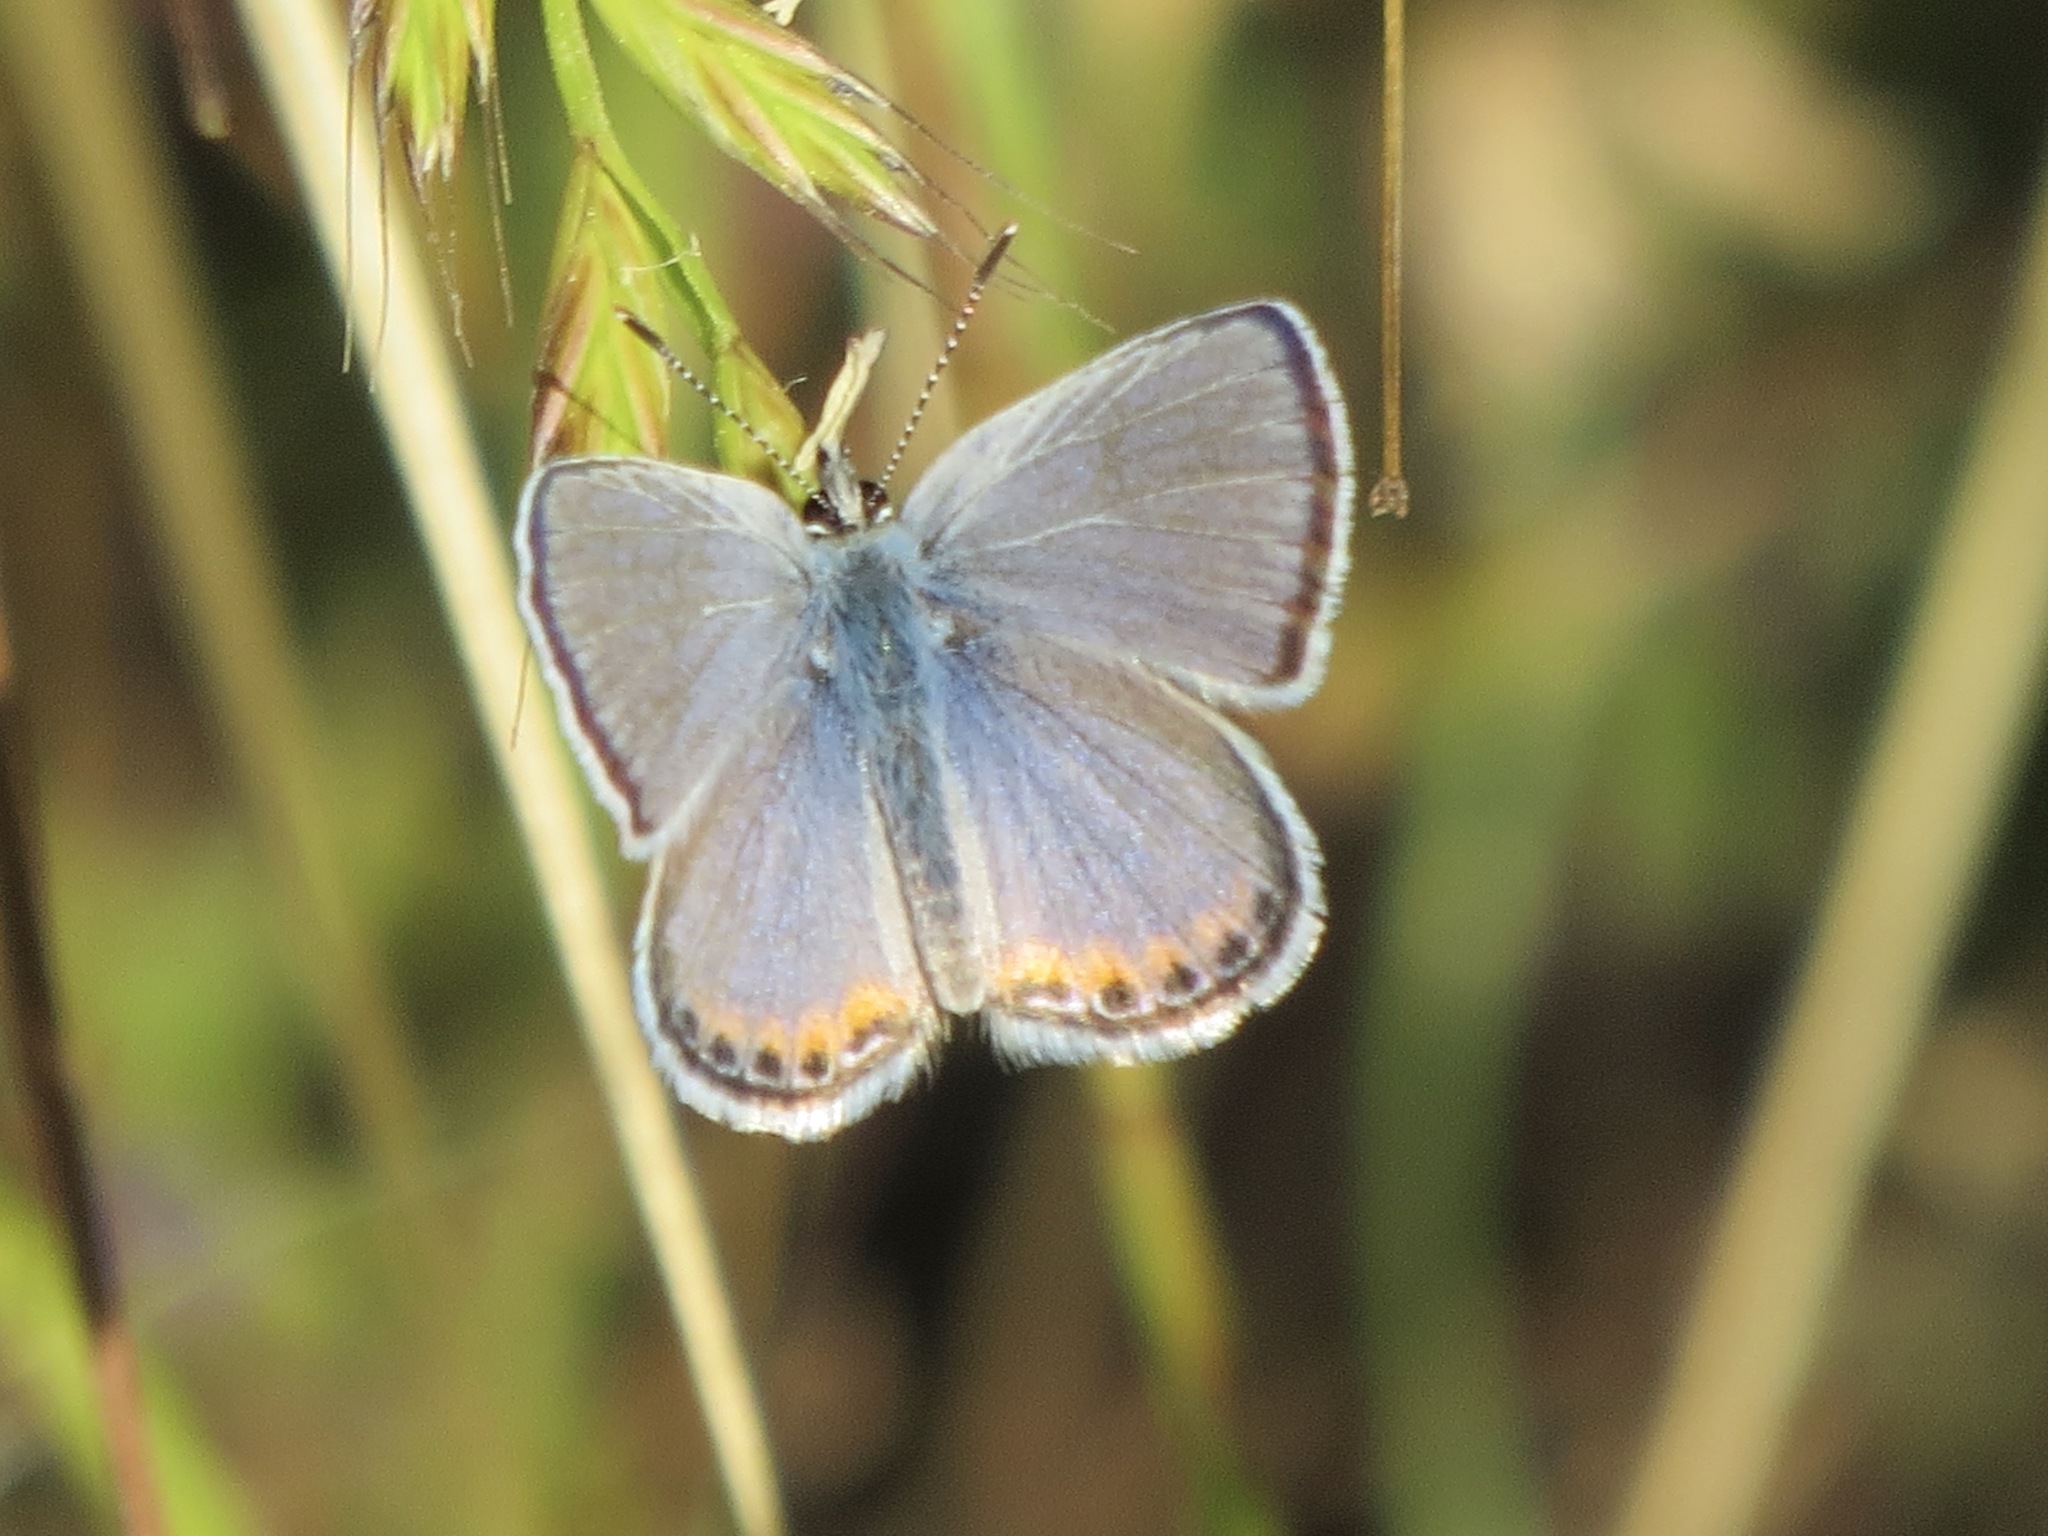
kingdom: Animalia
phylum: Arthropoda
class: Insecta
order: Lepidoptera
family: Lycaenidae
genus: Icaricia
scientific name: Icaricia acmon
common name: Acmon blue
